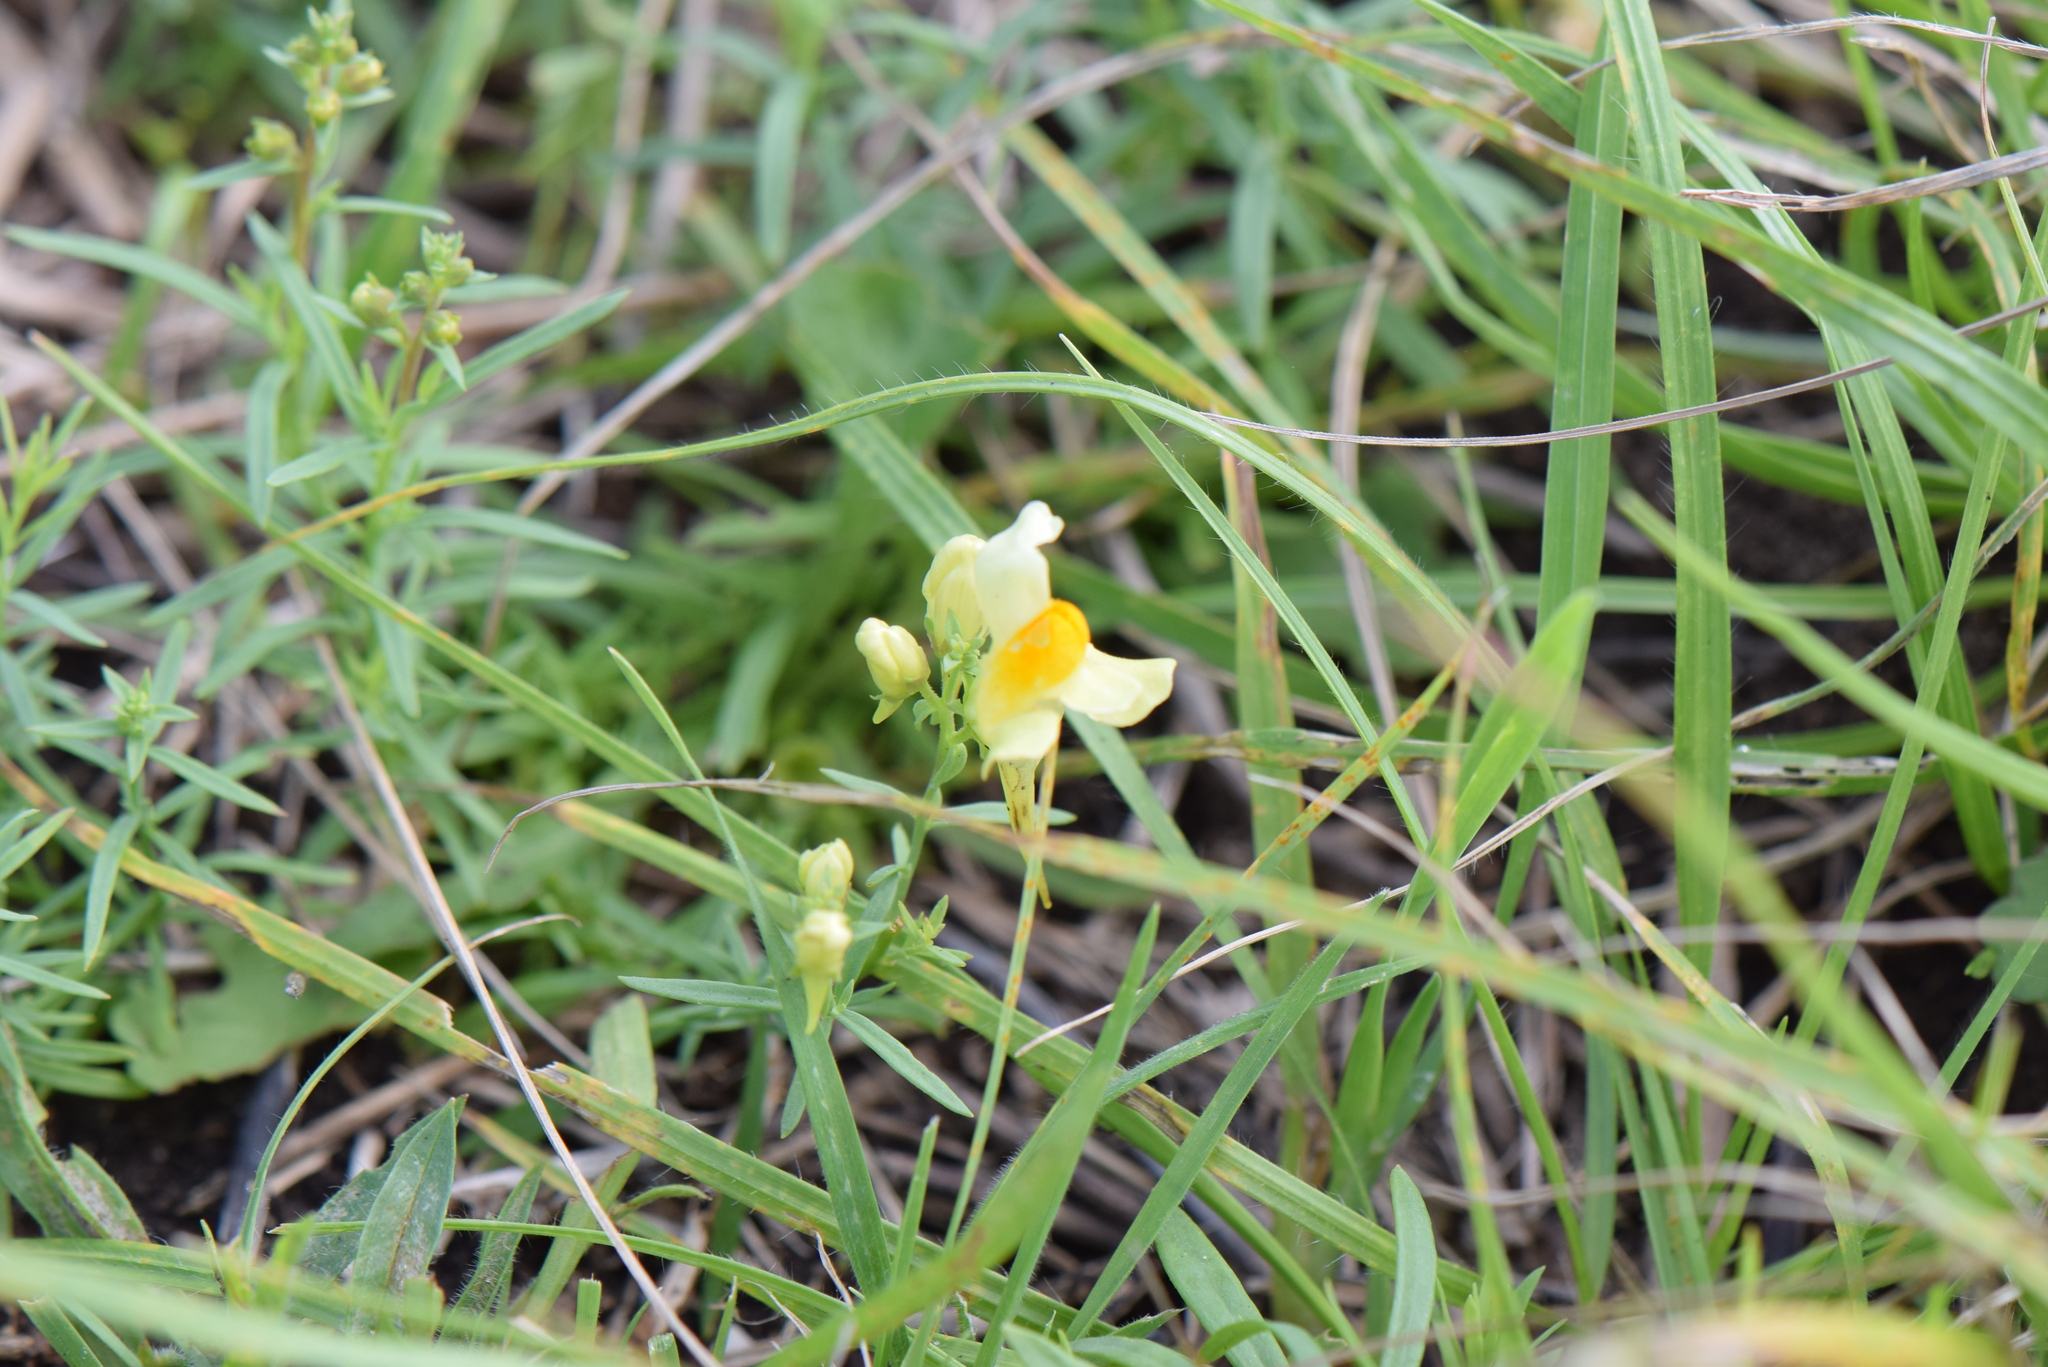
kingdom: Plantae
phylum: Tracheophyta
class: Magnoliopsida
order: Lamiales
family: Plantaginaceae
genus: Linaria
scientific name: Linaria vulgaris
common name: Butter and eggs
